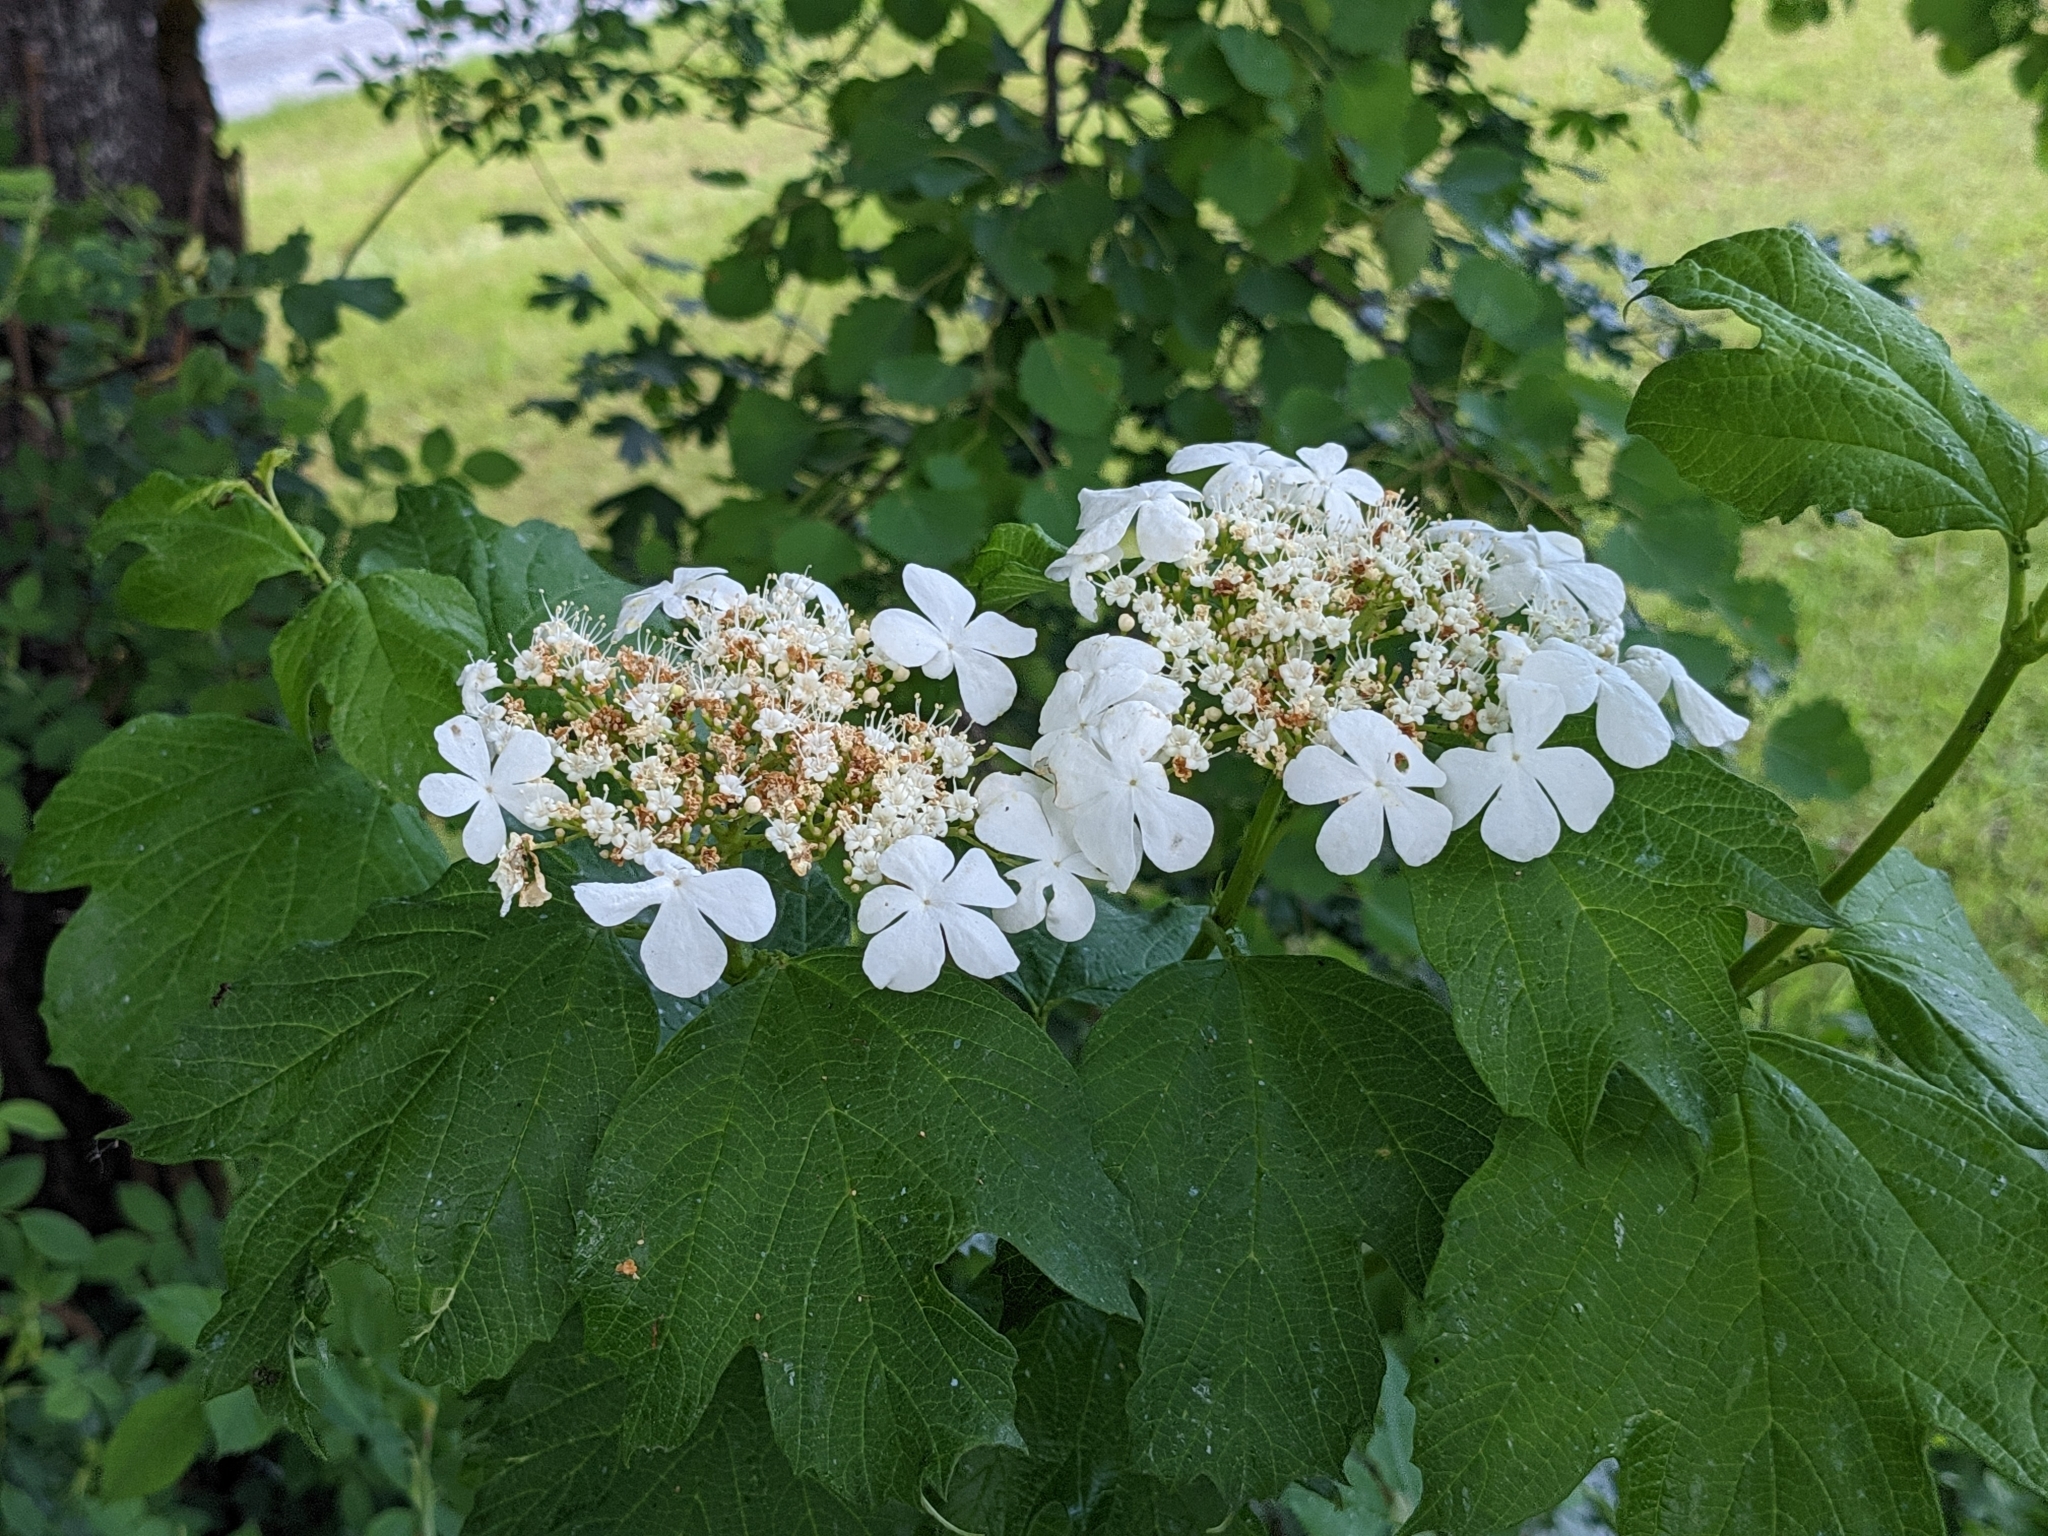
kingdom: Plantae
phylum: Tracheophyta
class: Magnoliopsida
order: Dipsacales
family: Viburnaceae
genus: Viburnum
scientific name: Viburnum opulus
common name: Guelder-rose
